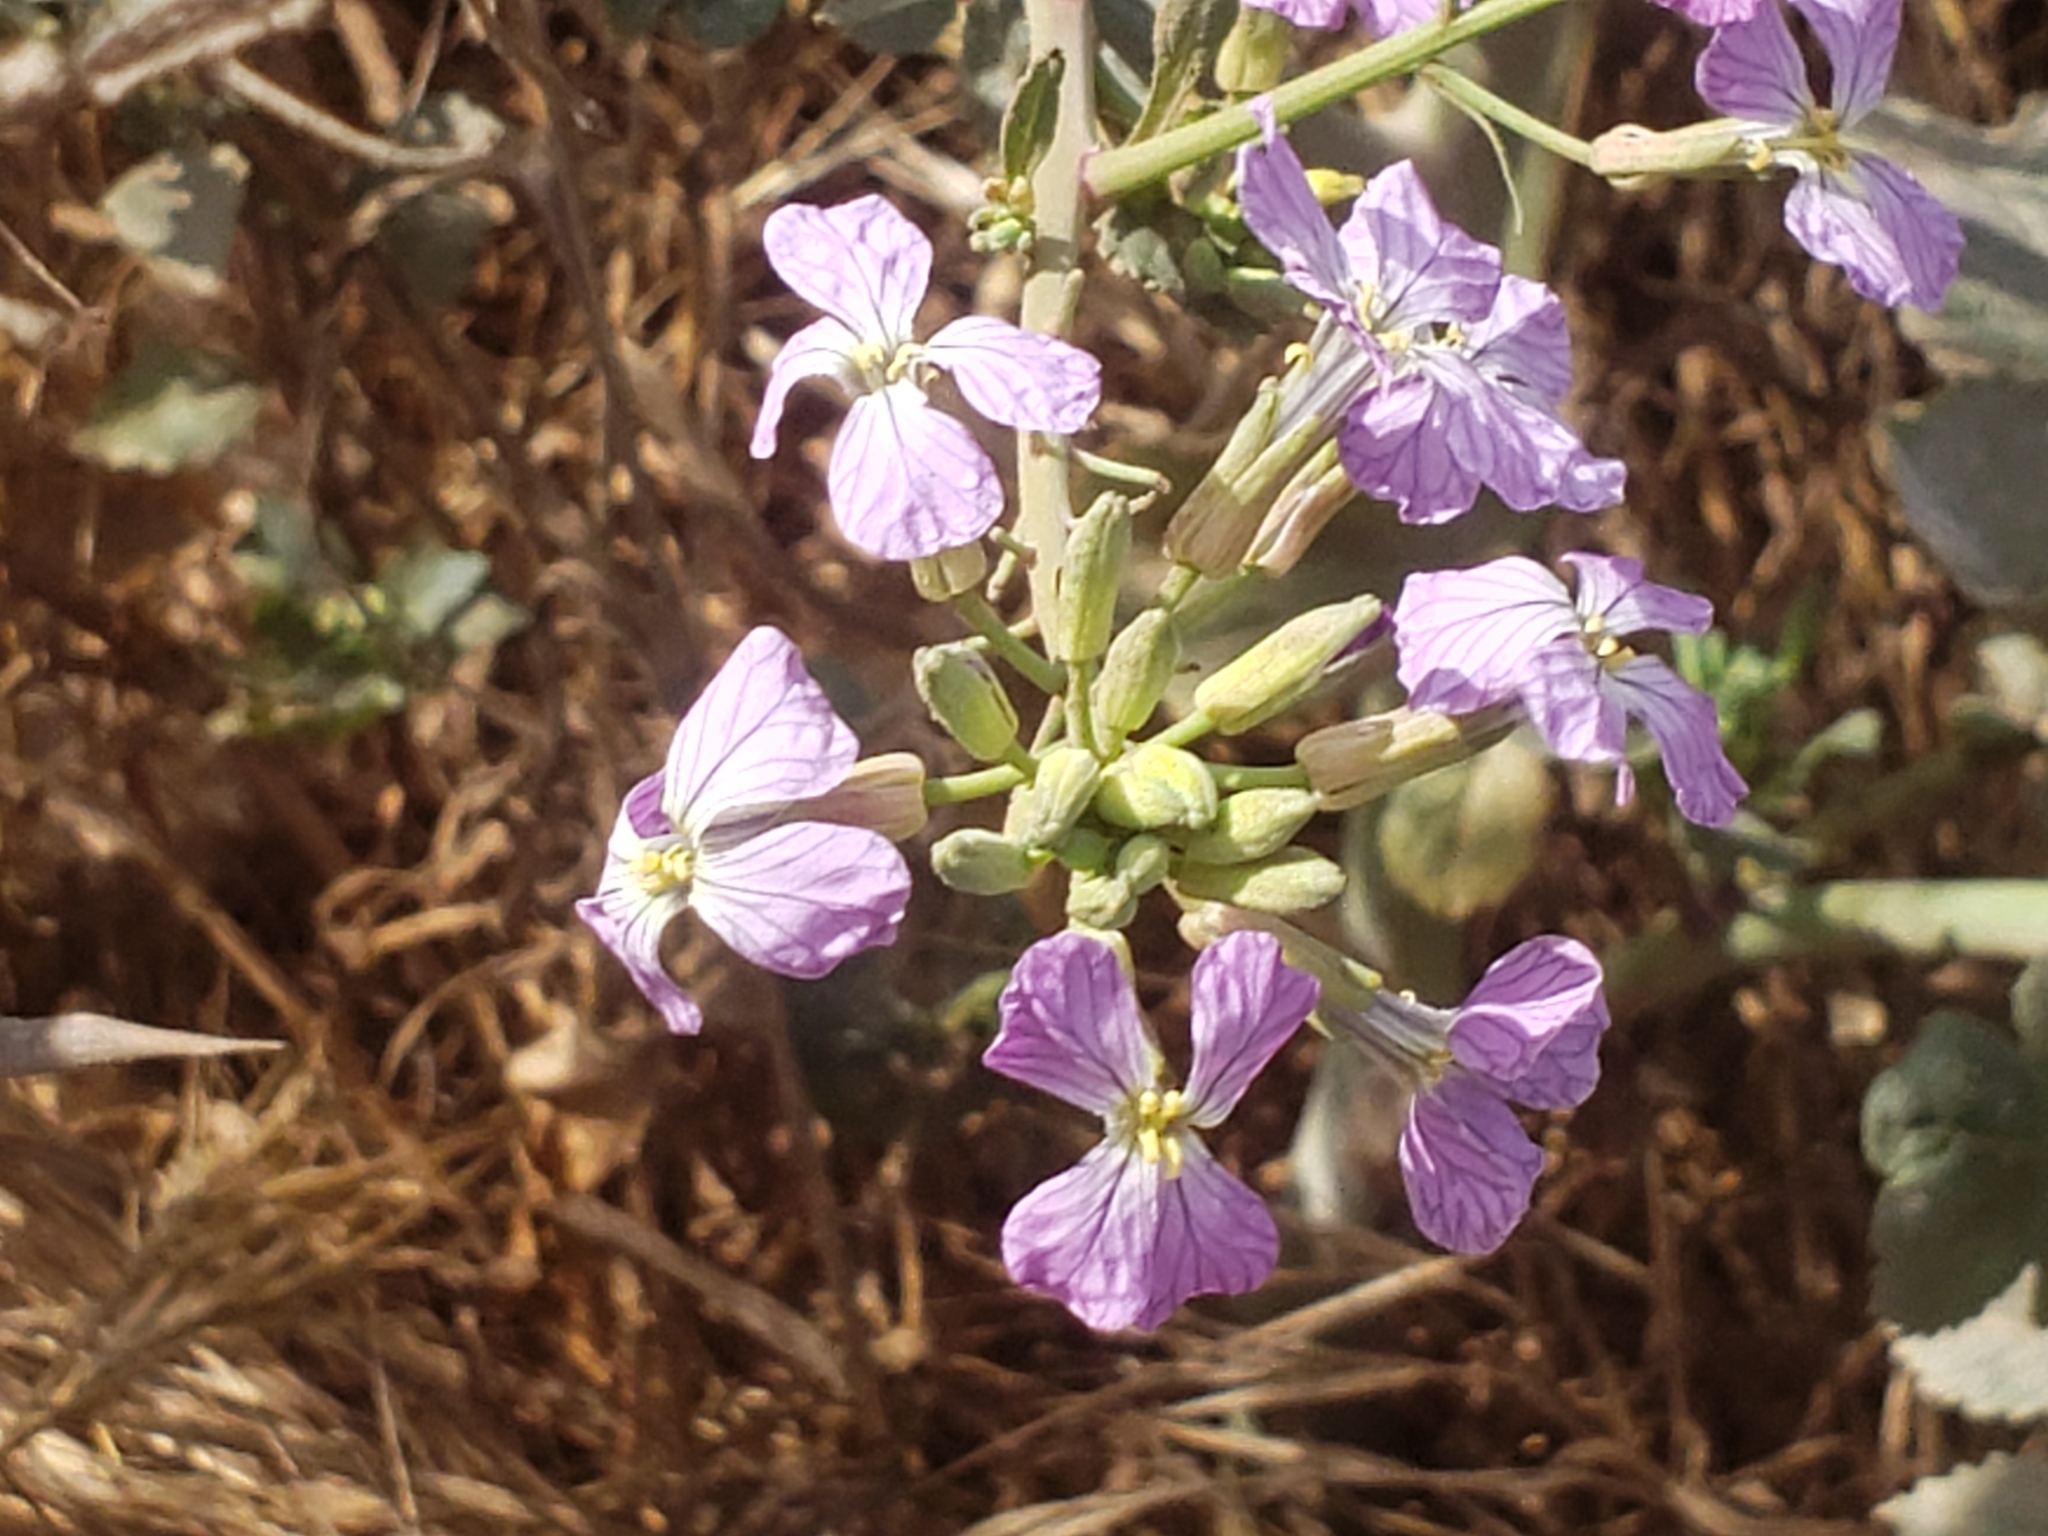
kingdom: Plantae
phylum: Tracheophyta
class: Magnoliopsida
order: Brassicales
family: Brassicaceae
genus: Raphanus
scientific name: Raphanus sativus
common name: Cultivated radish
